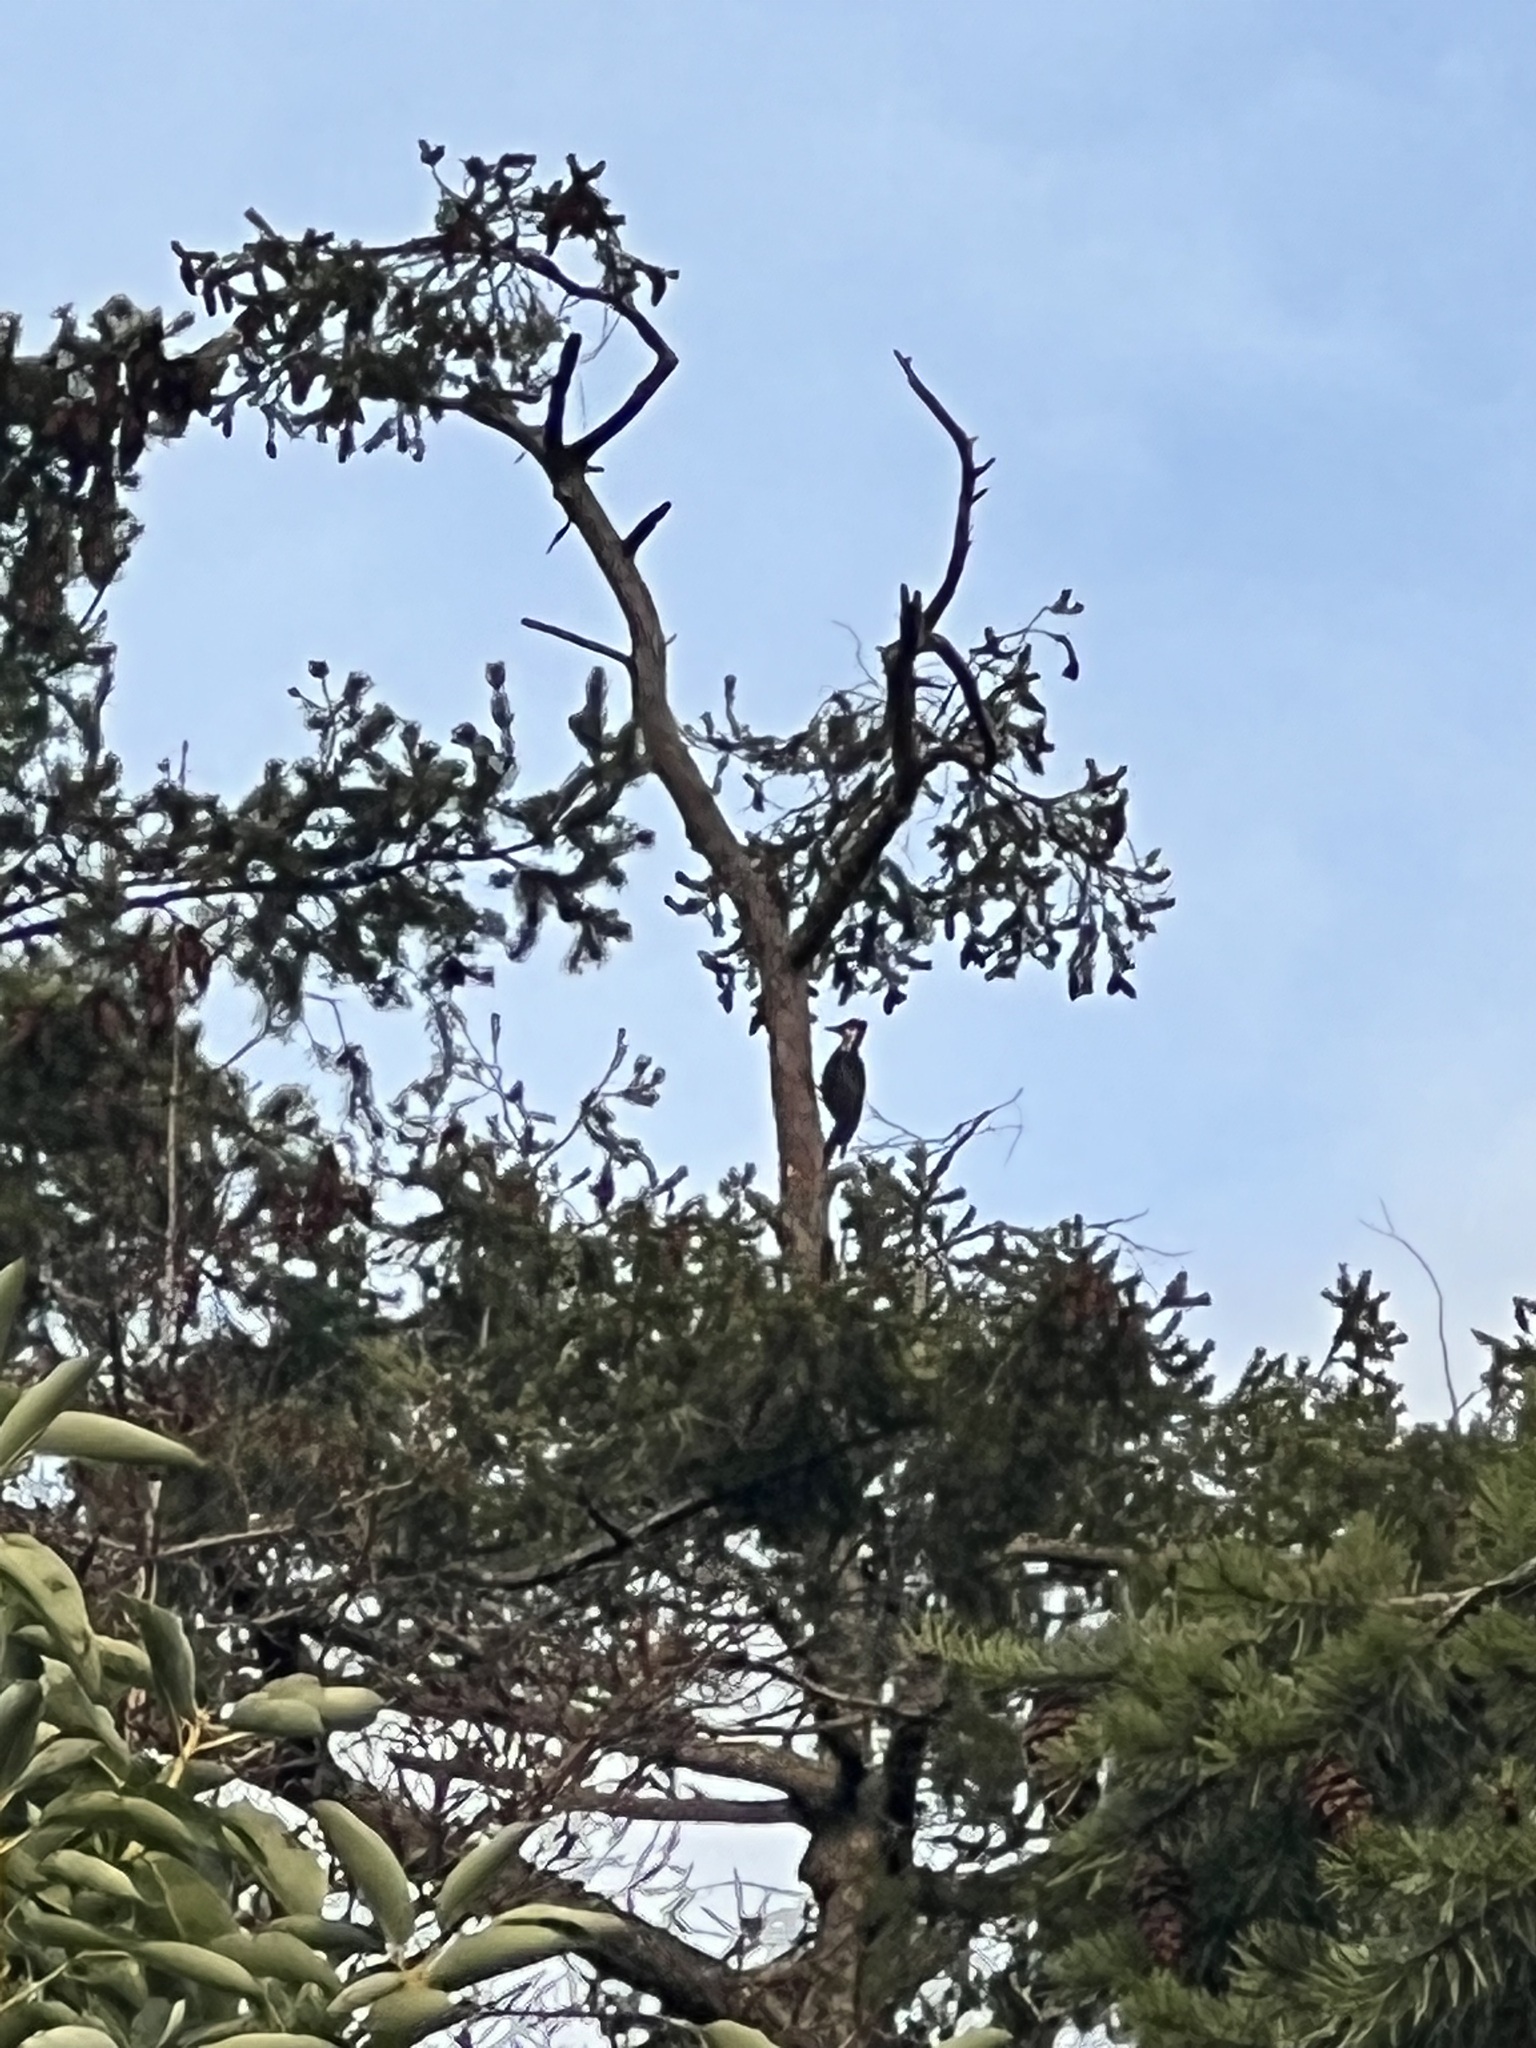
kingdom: Animalia
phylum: Chordata
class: Aves
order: Piciformes
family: Picidae
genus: Dryocopus
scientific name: Dryocopus pileatus
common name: Pileated woodpecker
